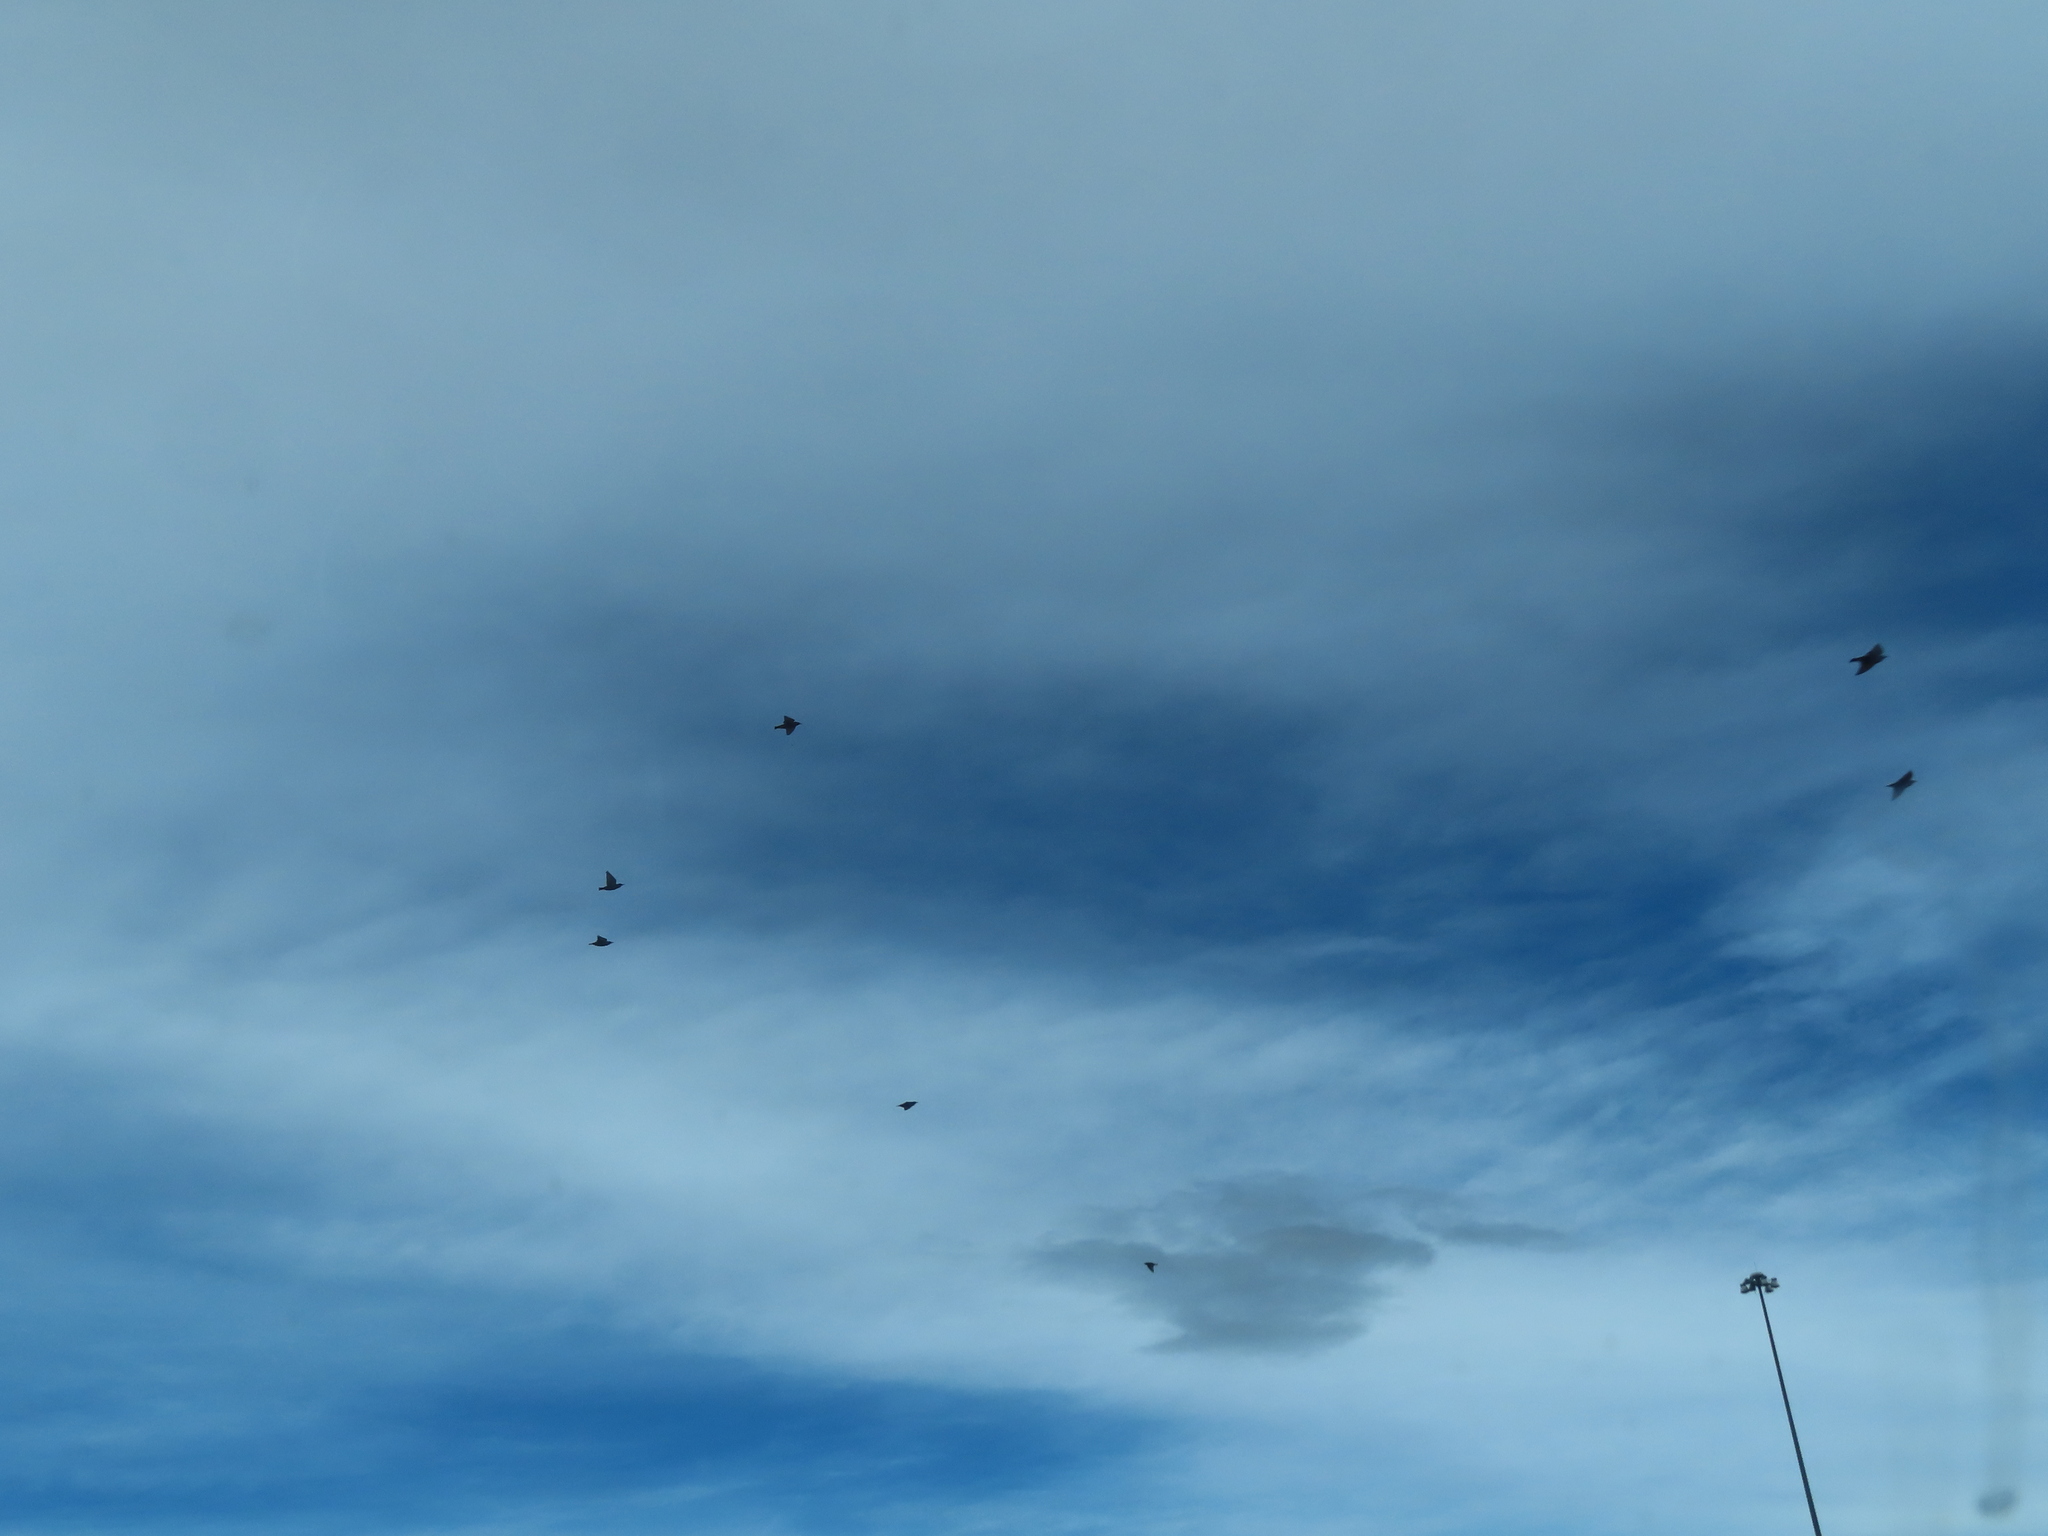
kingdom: Animalia
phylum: Chordata
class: Aves
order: Passeriformes
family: Sturnidae
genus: Sturnus
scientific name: Sturnus vulgaris
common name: Common starling
